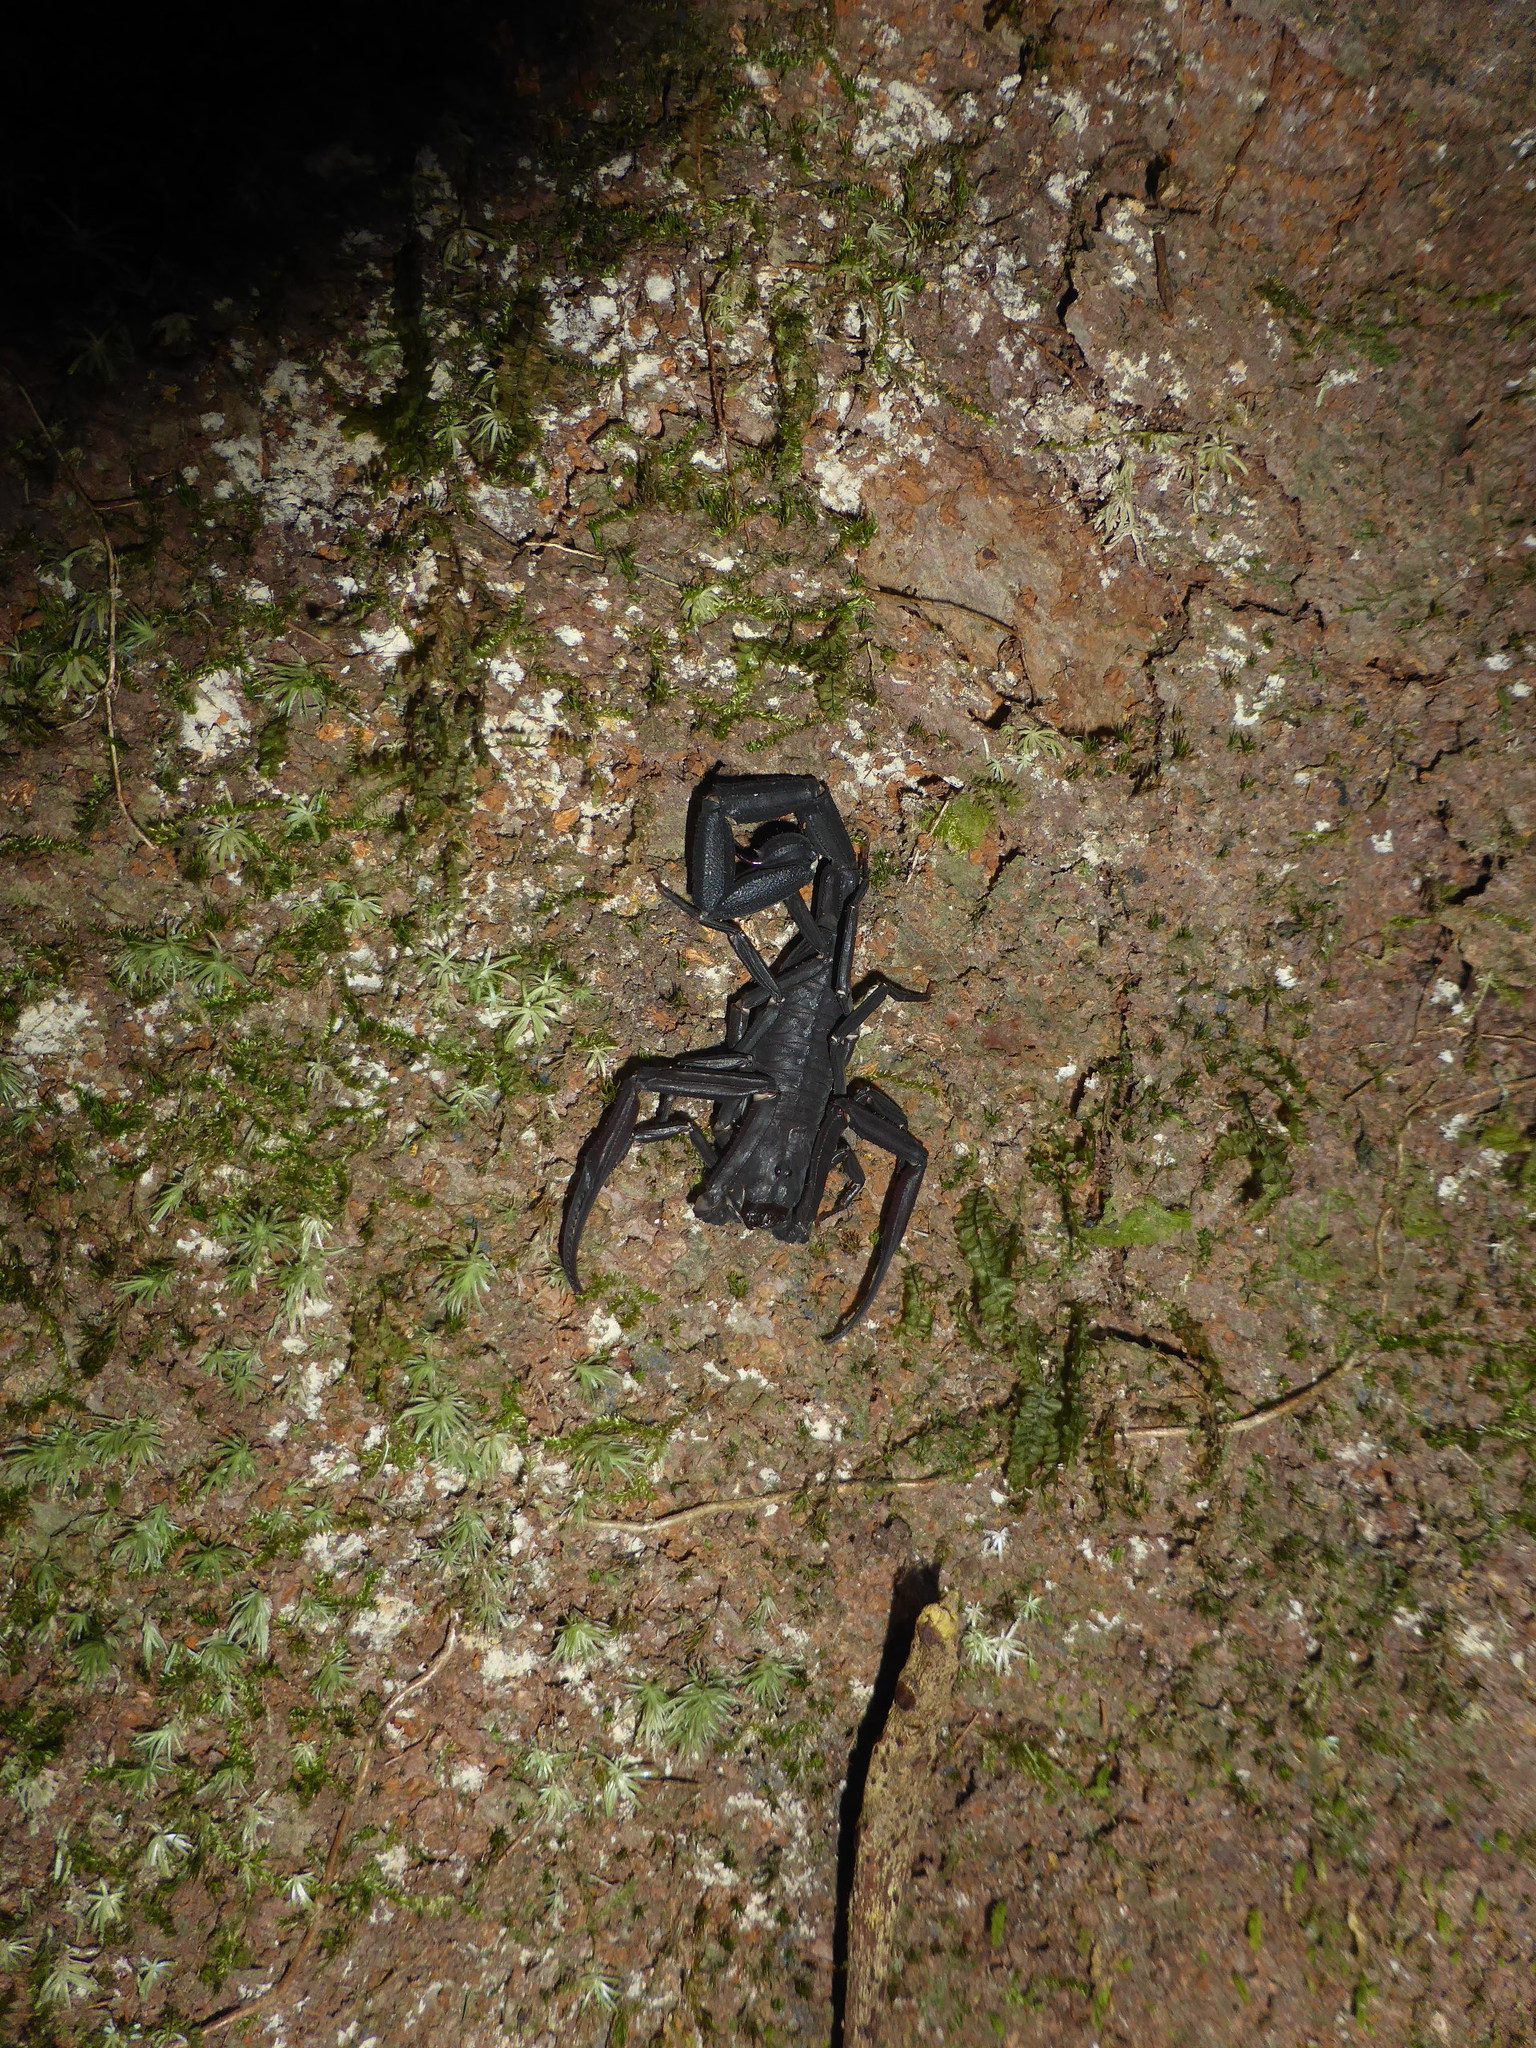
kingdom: Animalia
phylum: Arthropoda
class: Arachnida
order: Scorpiones
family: Buthidae
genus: Tityus
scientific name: Tityus obscurus
